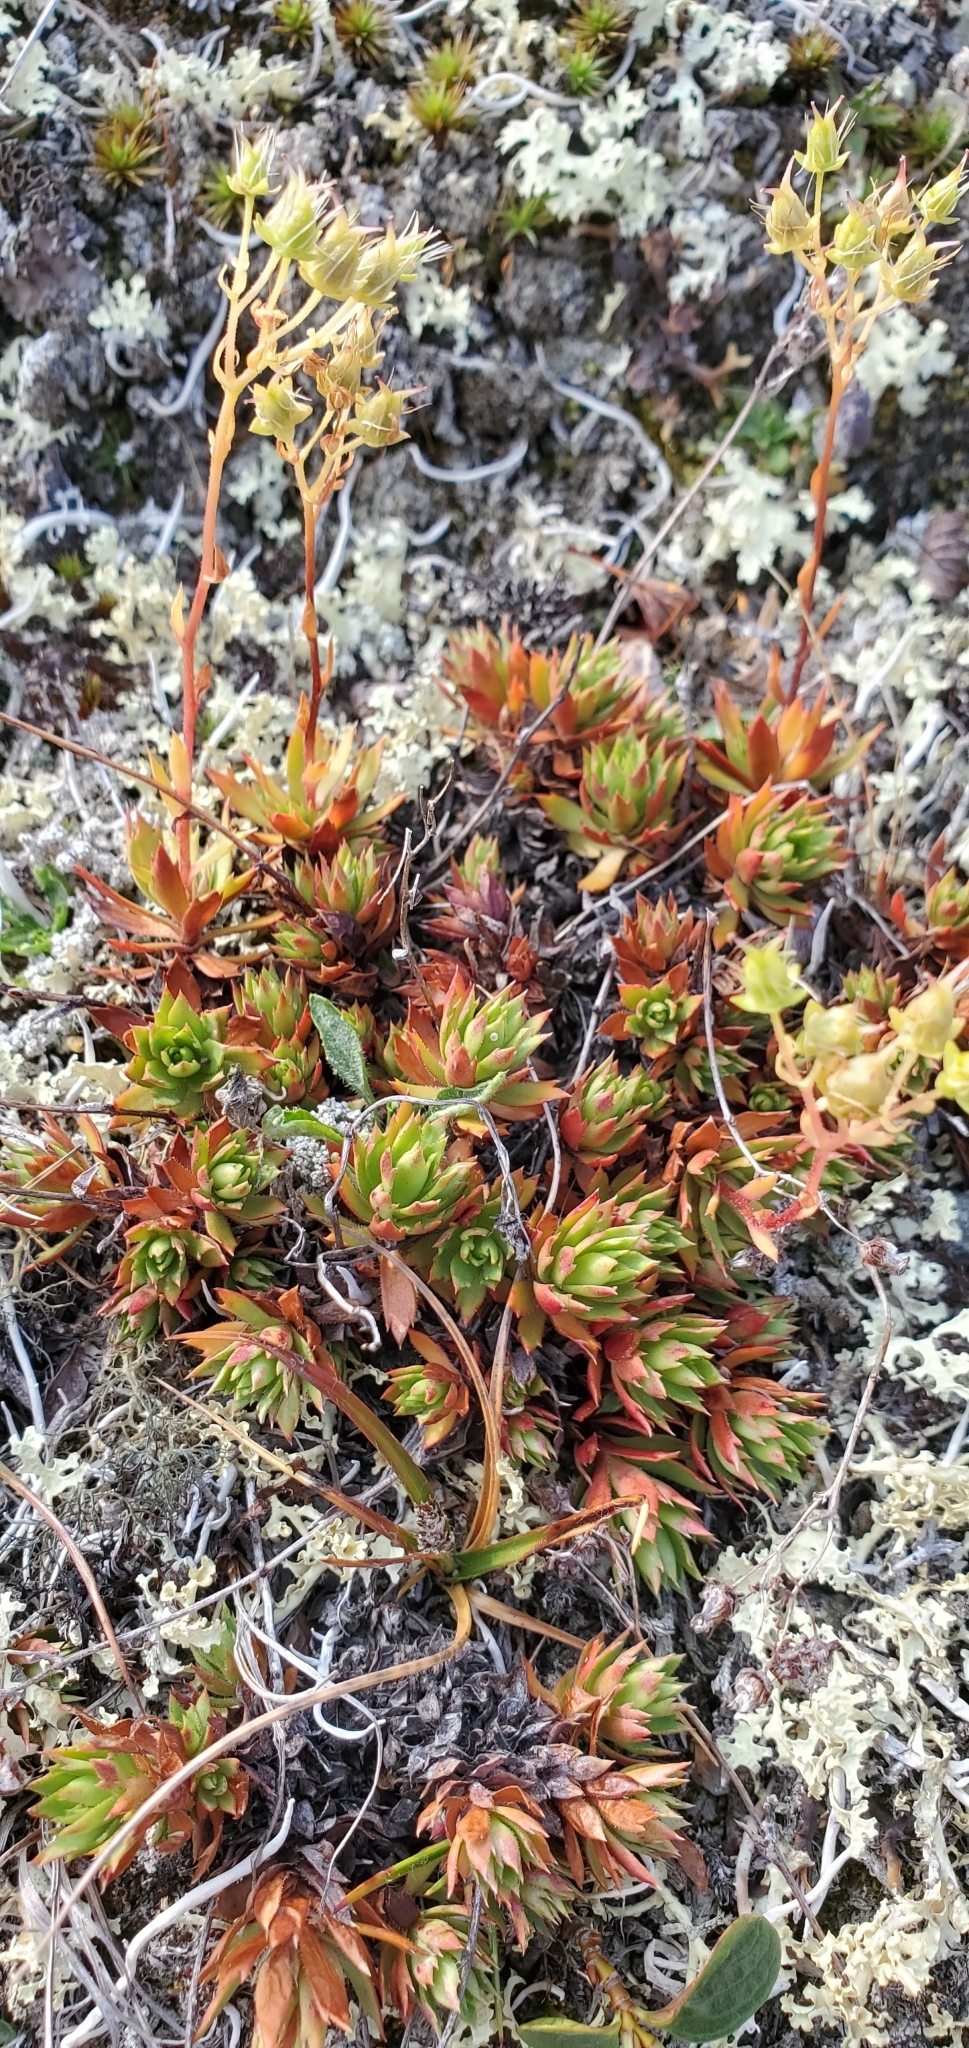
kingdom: Plantae
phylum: Tracheophyta
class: Magnoliopsida
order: Saxifragales
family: Saxifragaceae
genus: Saxifraga
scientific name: Saxifraga tricuspidata
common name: Prickly saxifrage
